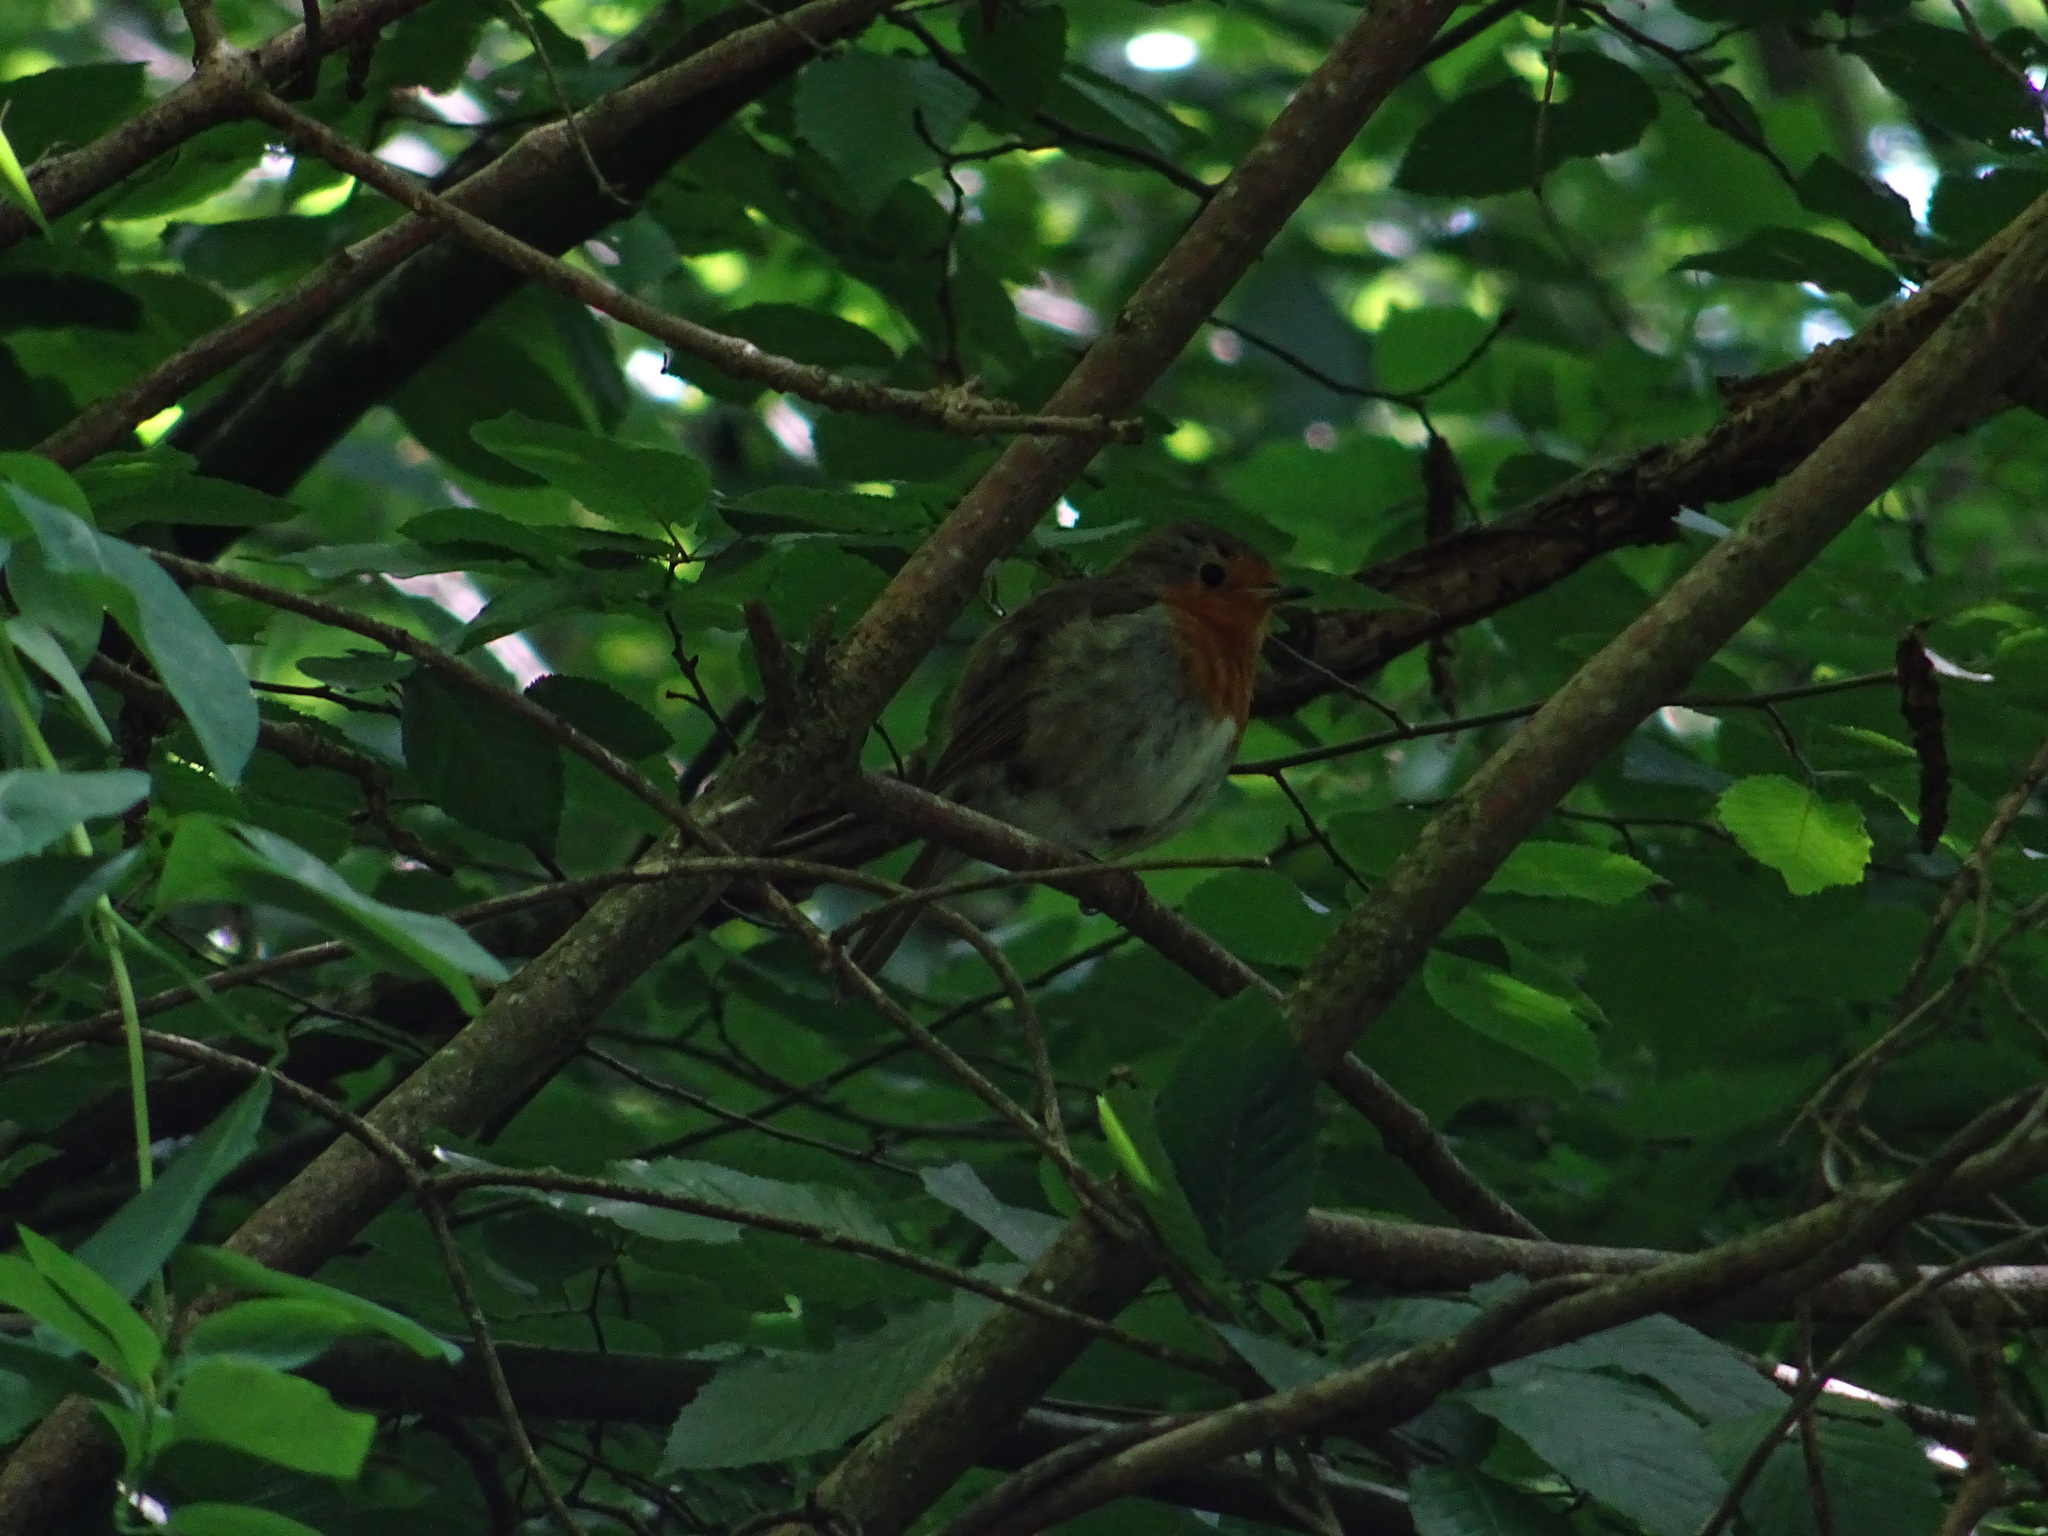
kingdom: Animalia
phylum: Chordata
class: Aves
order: Passeriformes
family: Muscicapidae
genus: Erithacus
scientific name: Erithacus rubecula
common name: European robin
